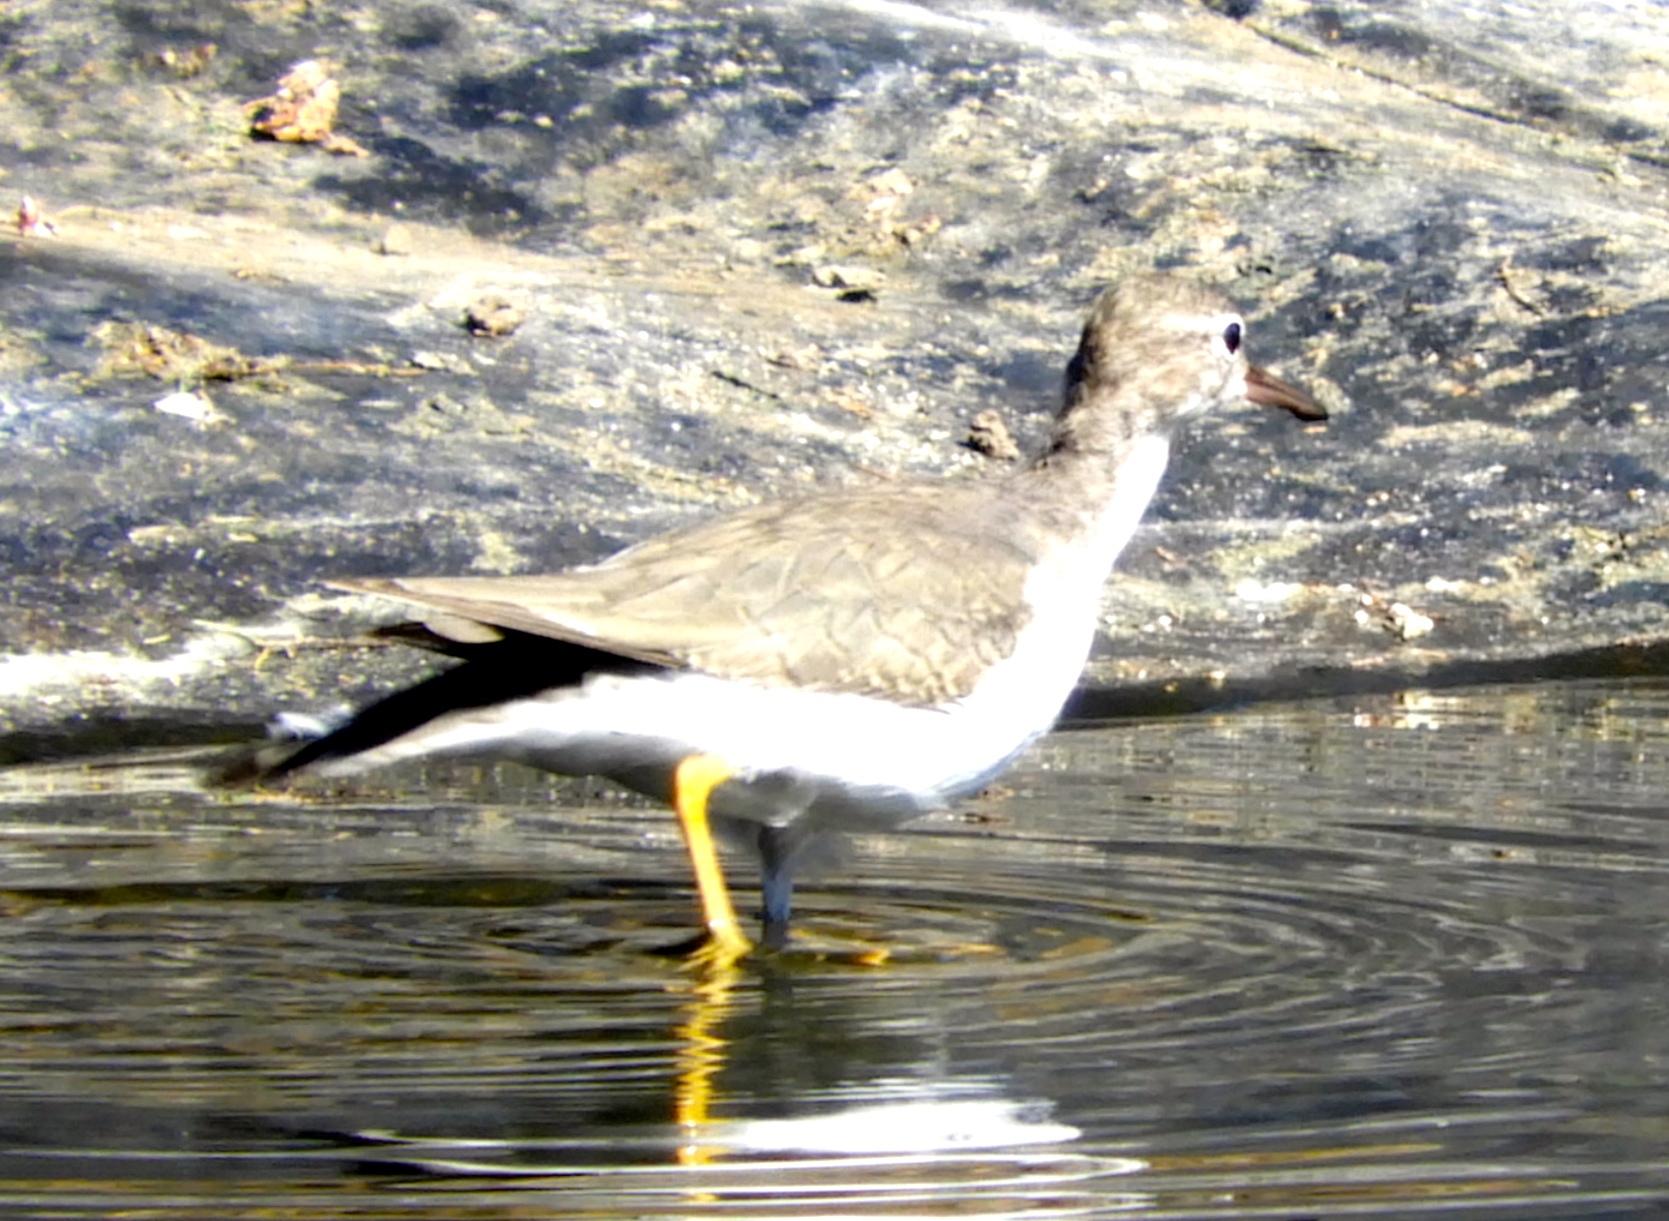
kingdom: Animalia
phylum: Chordata
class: Aves
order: Charadriiformes
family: Scolopacidae
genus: Actitis
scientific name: Actitis macularius
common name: Spotted sandpiper
